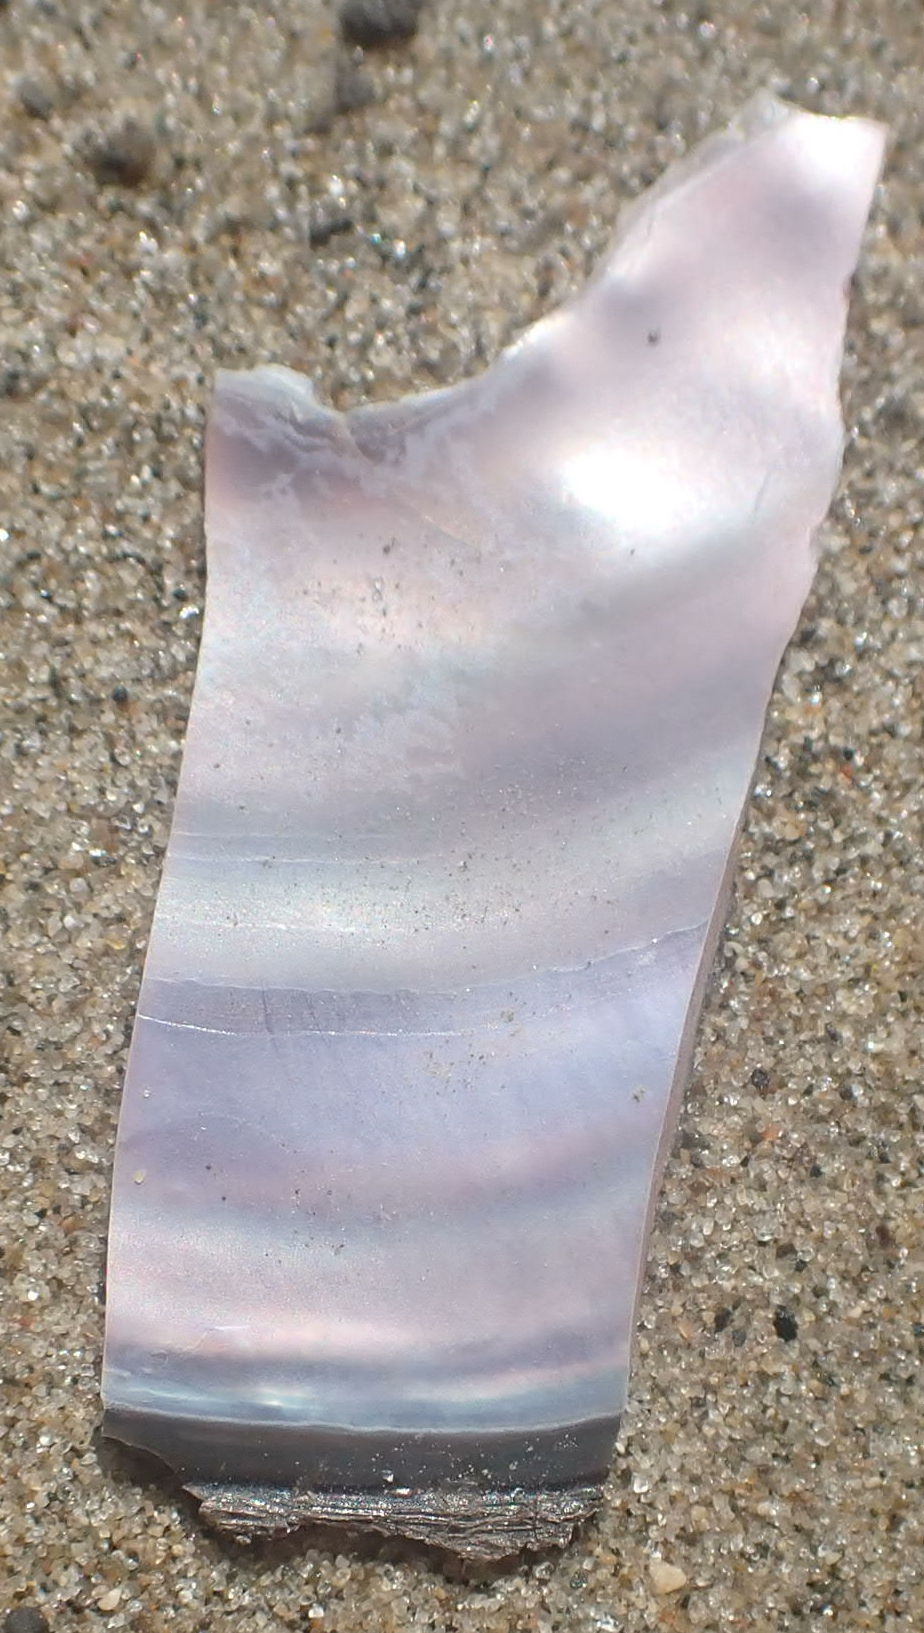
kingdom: Animalia
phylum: Mollusca
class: Bivalvia
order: Unionida
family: Unionidae
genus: Potamilus
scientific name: Potamilus alatus
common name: Pink heelsplitter
